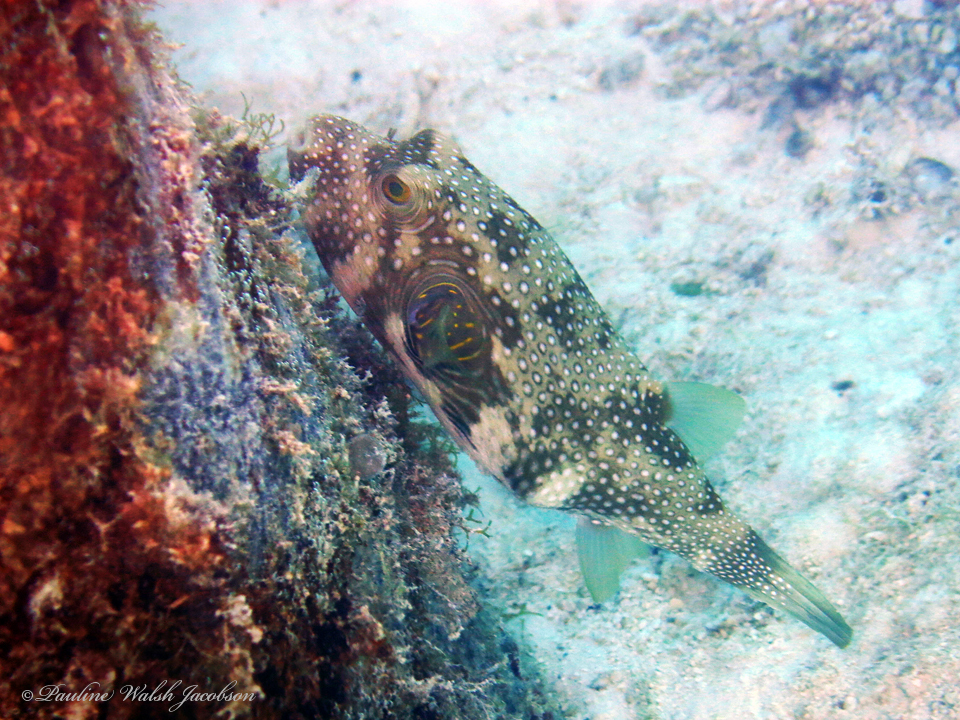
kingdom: Animalia
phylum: Chordata
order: Tetraodontiformes
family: Tetraodontidae
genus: Arothron
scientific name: Arothron hispidus
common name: Stripebelly puffer
